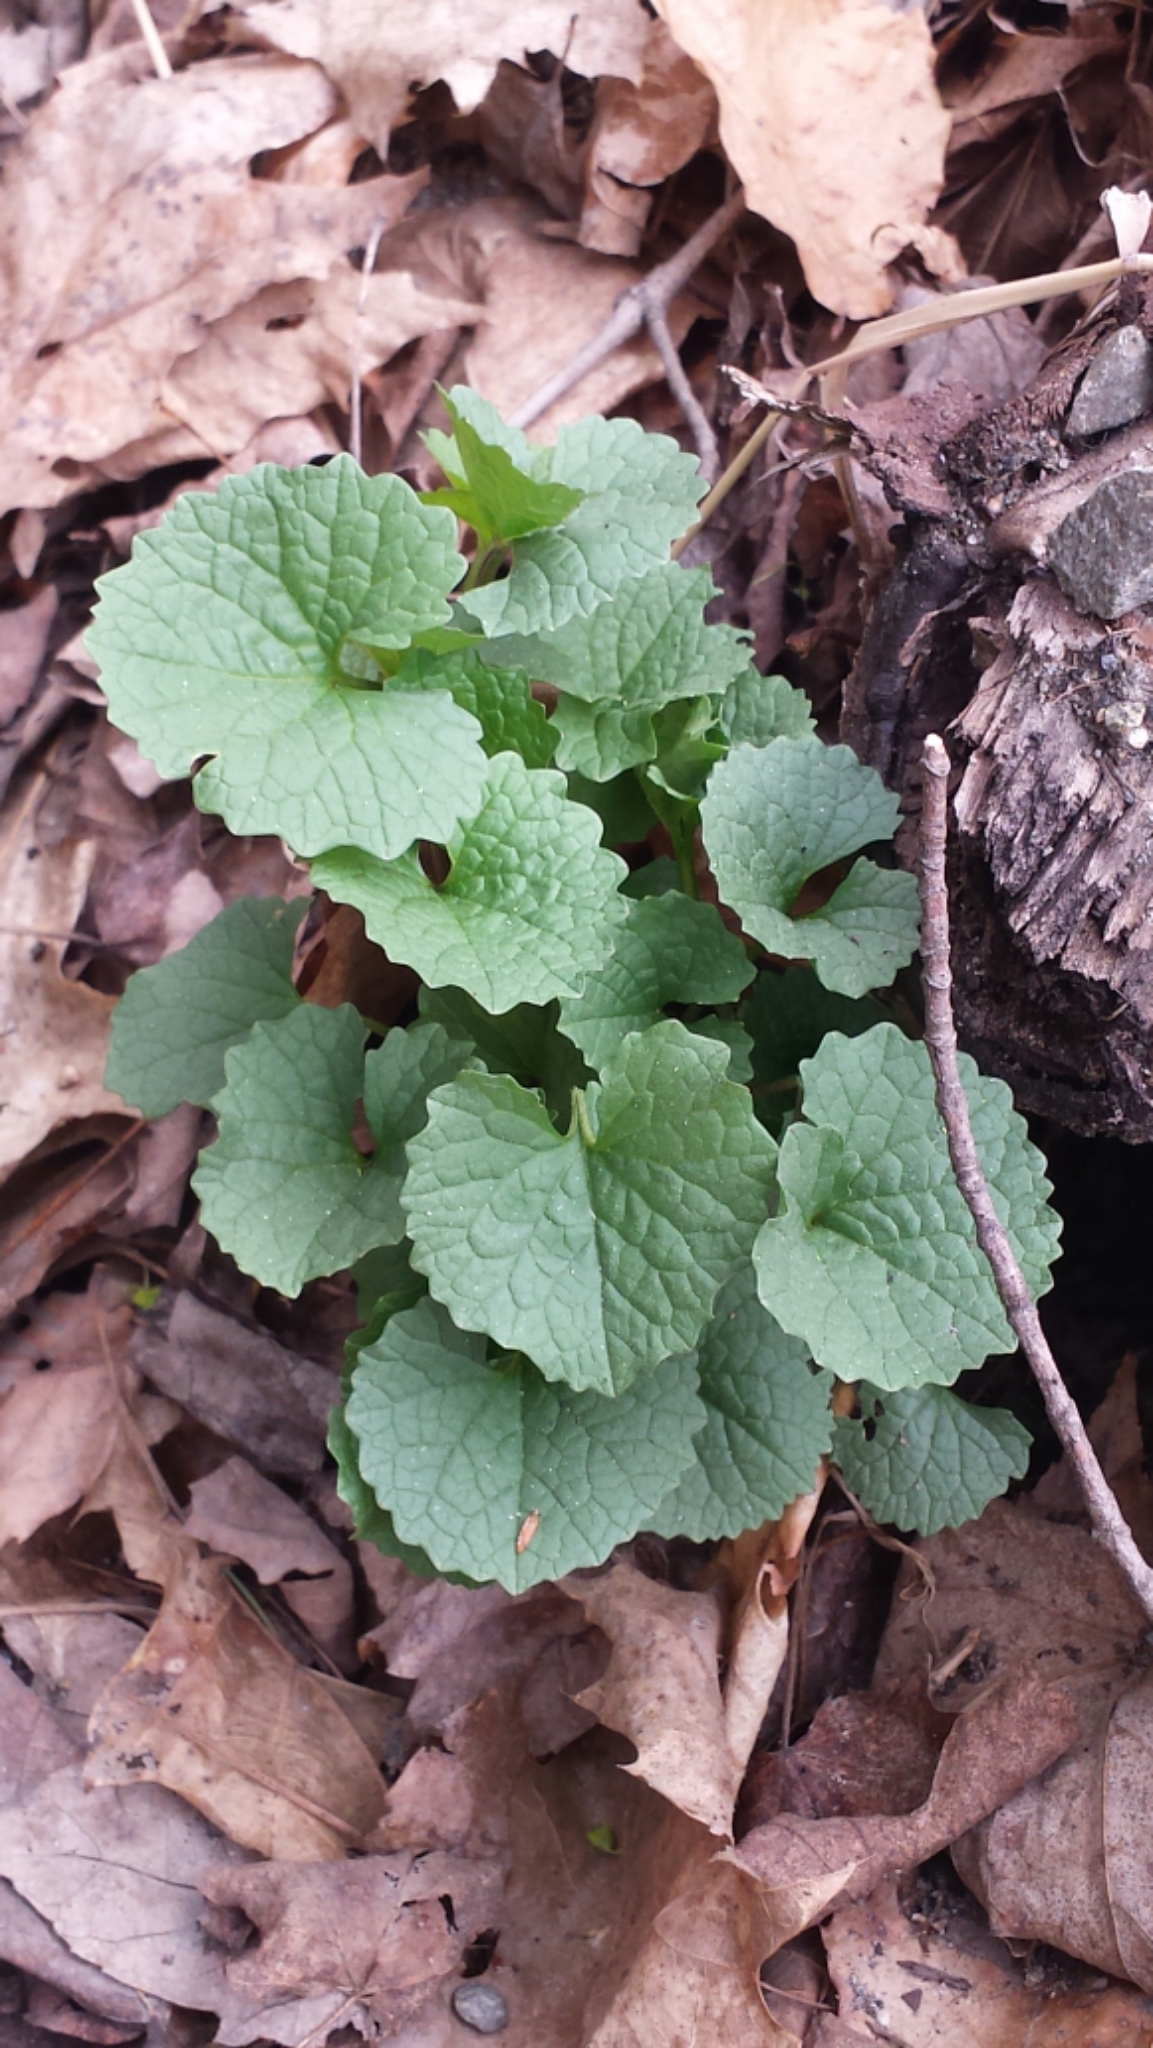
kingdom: Plantae
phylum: Tracheophyta
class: Magnoliopsida
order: Brassicales
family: Brassicaceae
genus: Alliaria
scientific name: Alliaria petiolata
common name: Garlic mustard
